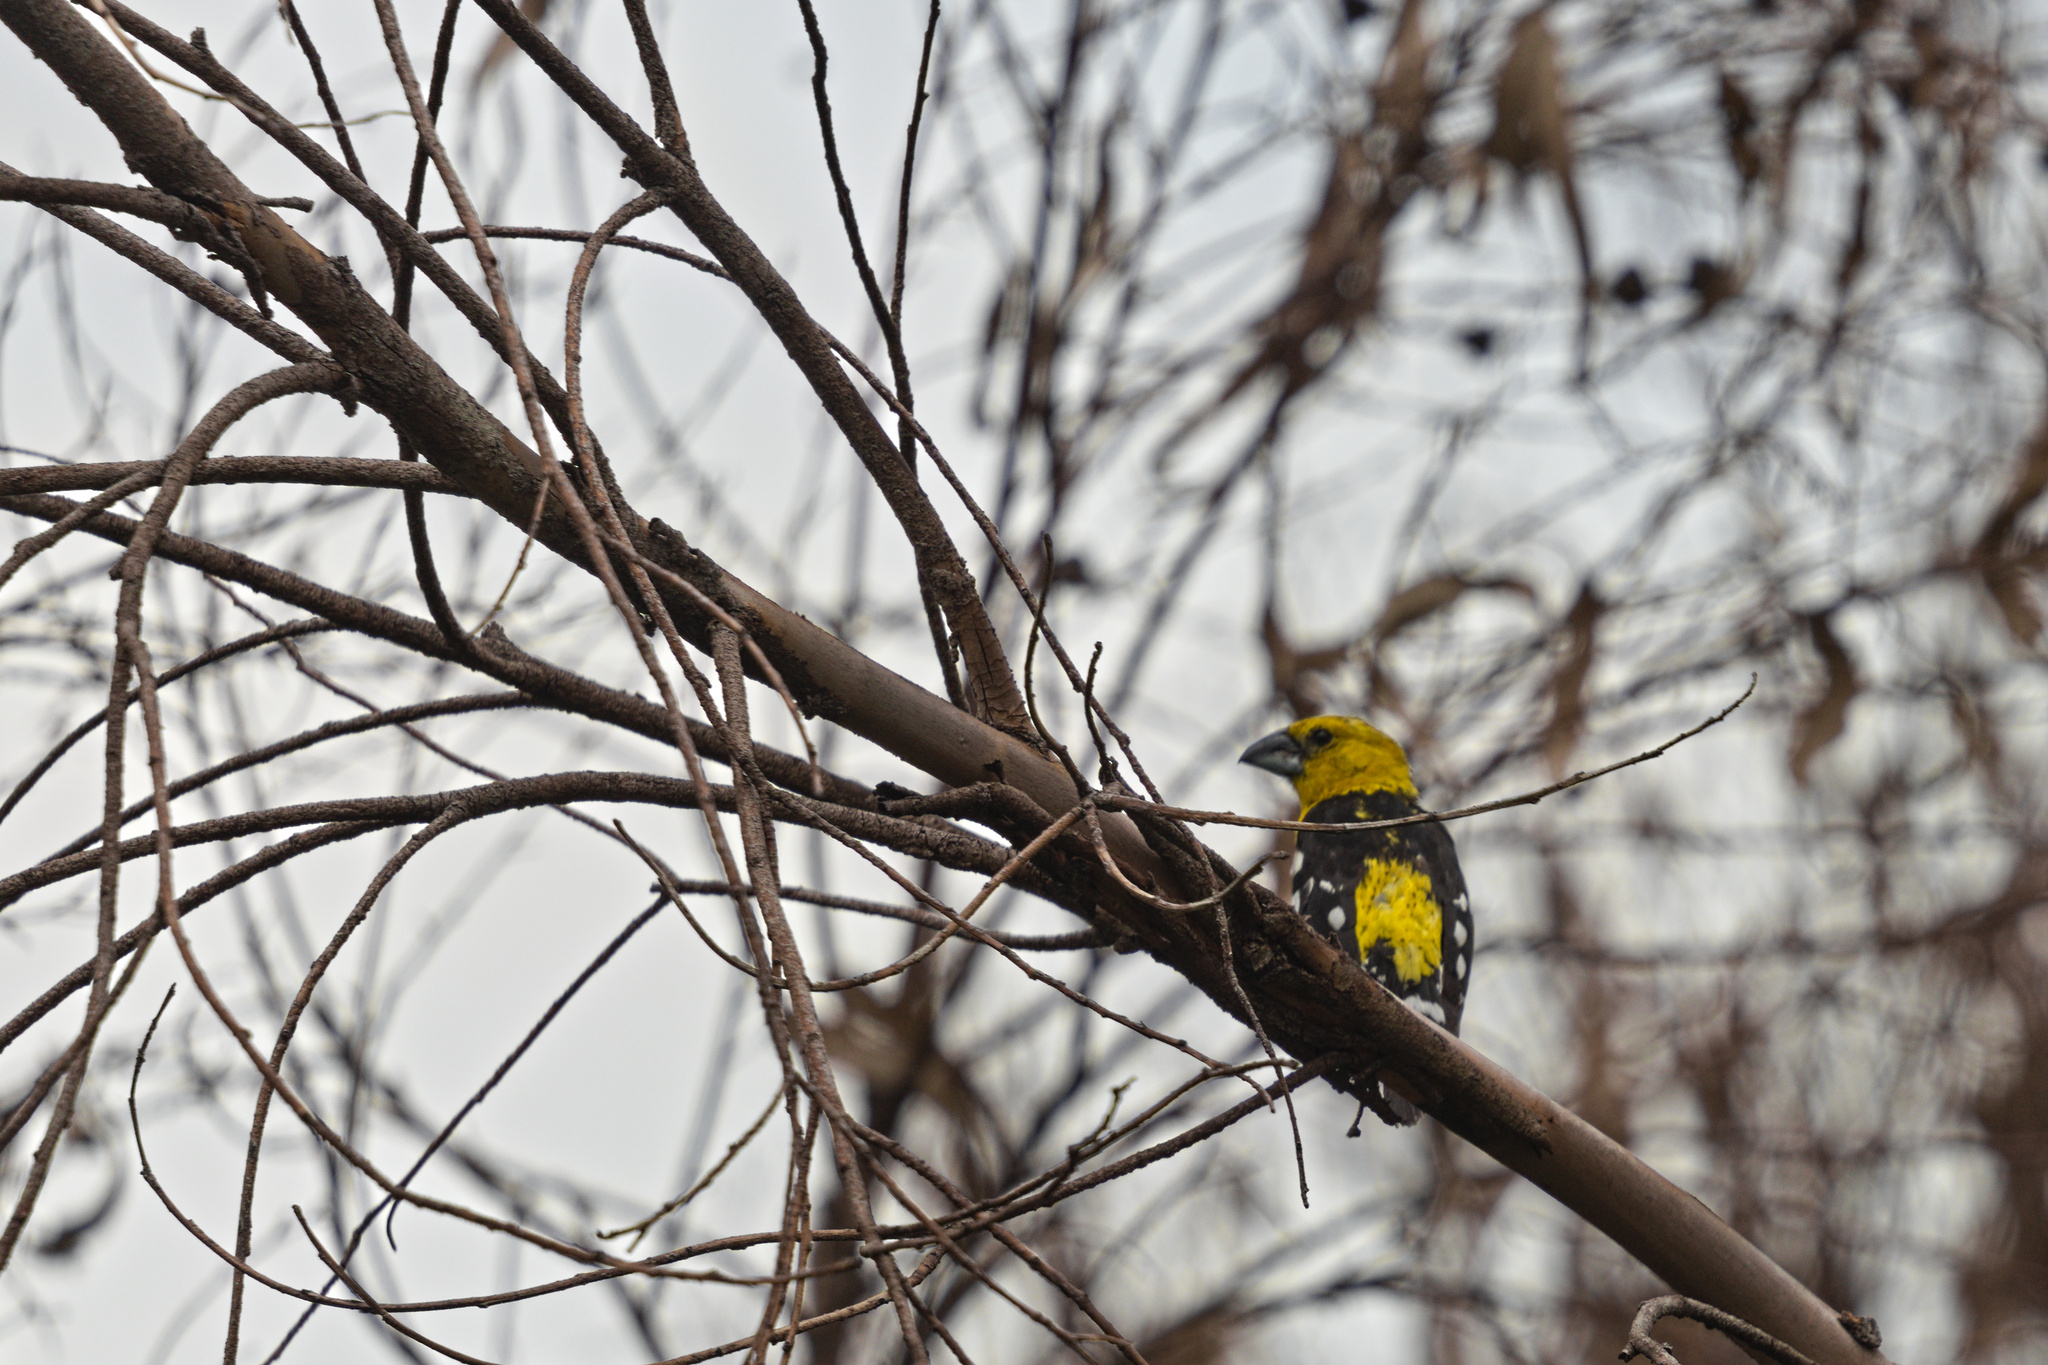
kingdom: Animalia
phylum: Chordata
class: Aves
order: Passeriformes
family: Cardinalidae
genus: Pheucticus
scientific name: Pheucticus chrysogaster
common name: Golden grosbeak
